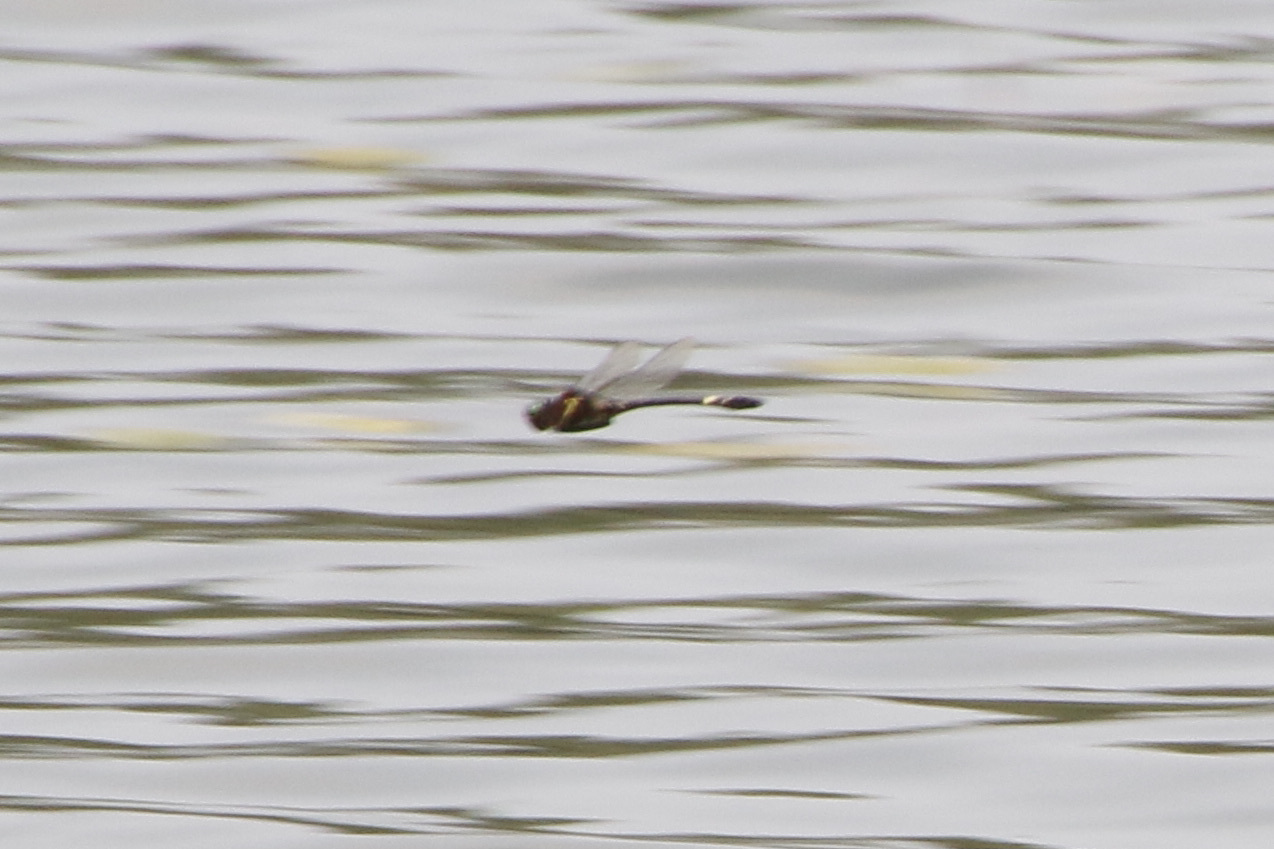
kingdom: Animalia
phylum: Arthropoda
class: Insecta
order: Odonata
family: Macromiidae
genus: Macromia
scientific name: Macromia illinoiensis
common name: Swift river cruiser
